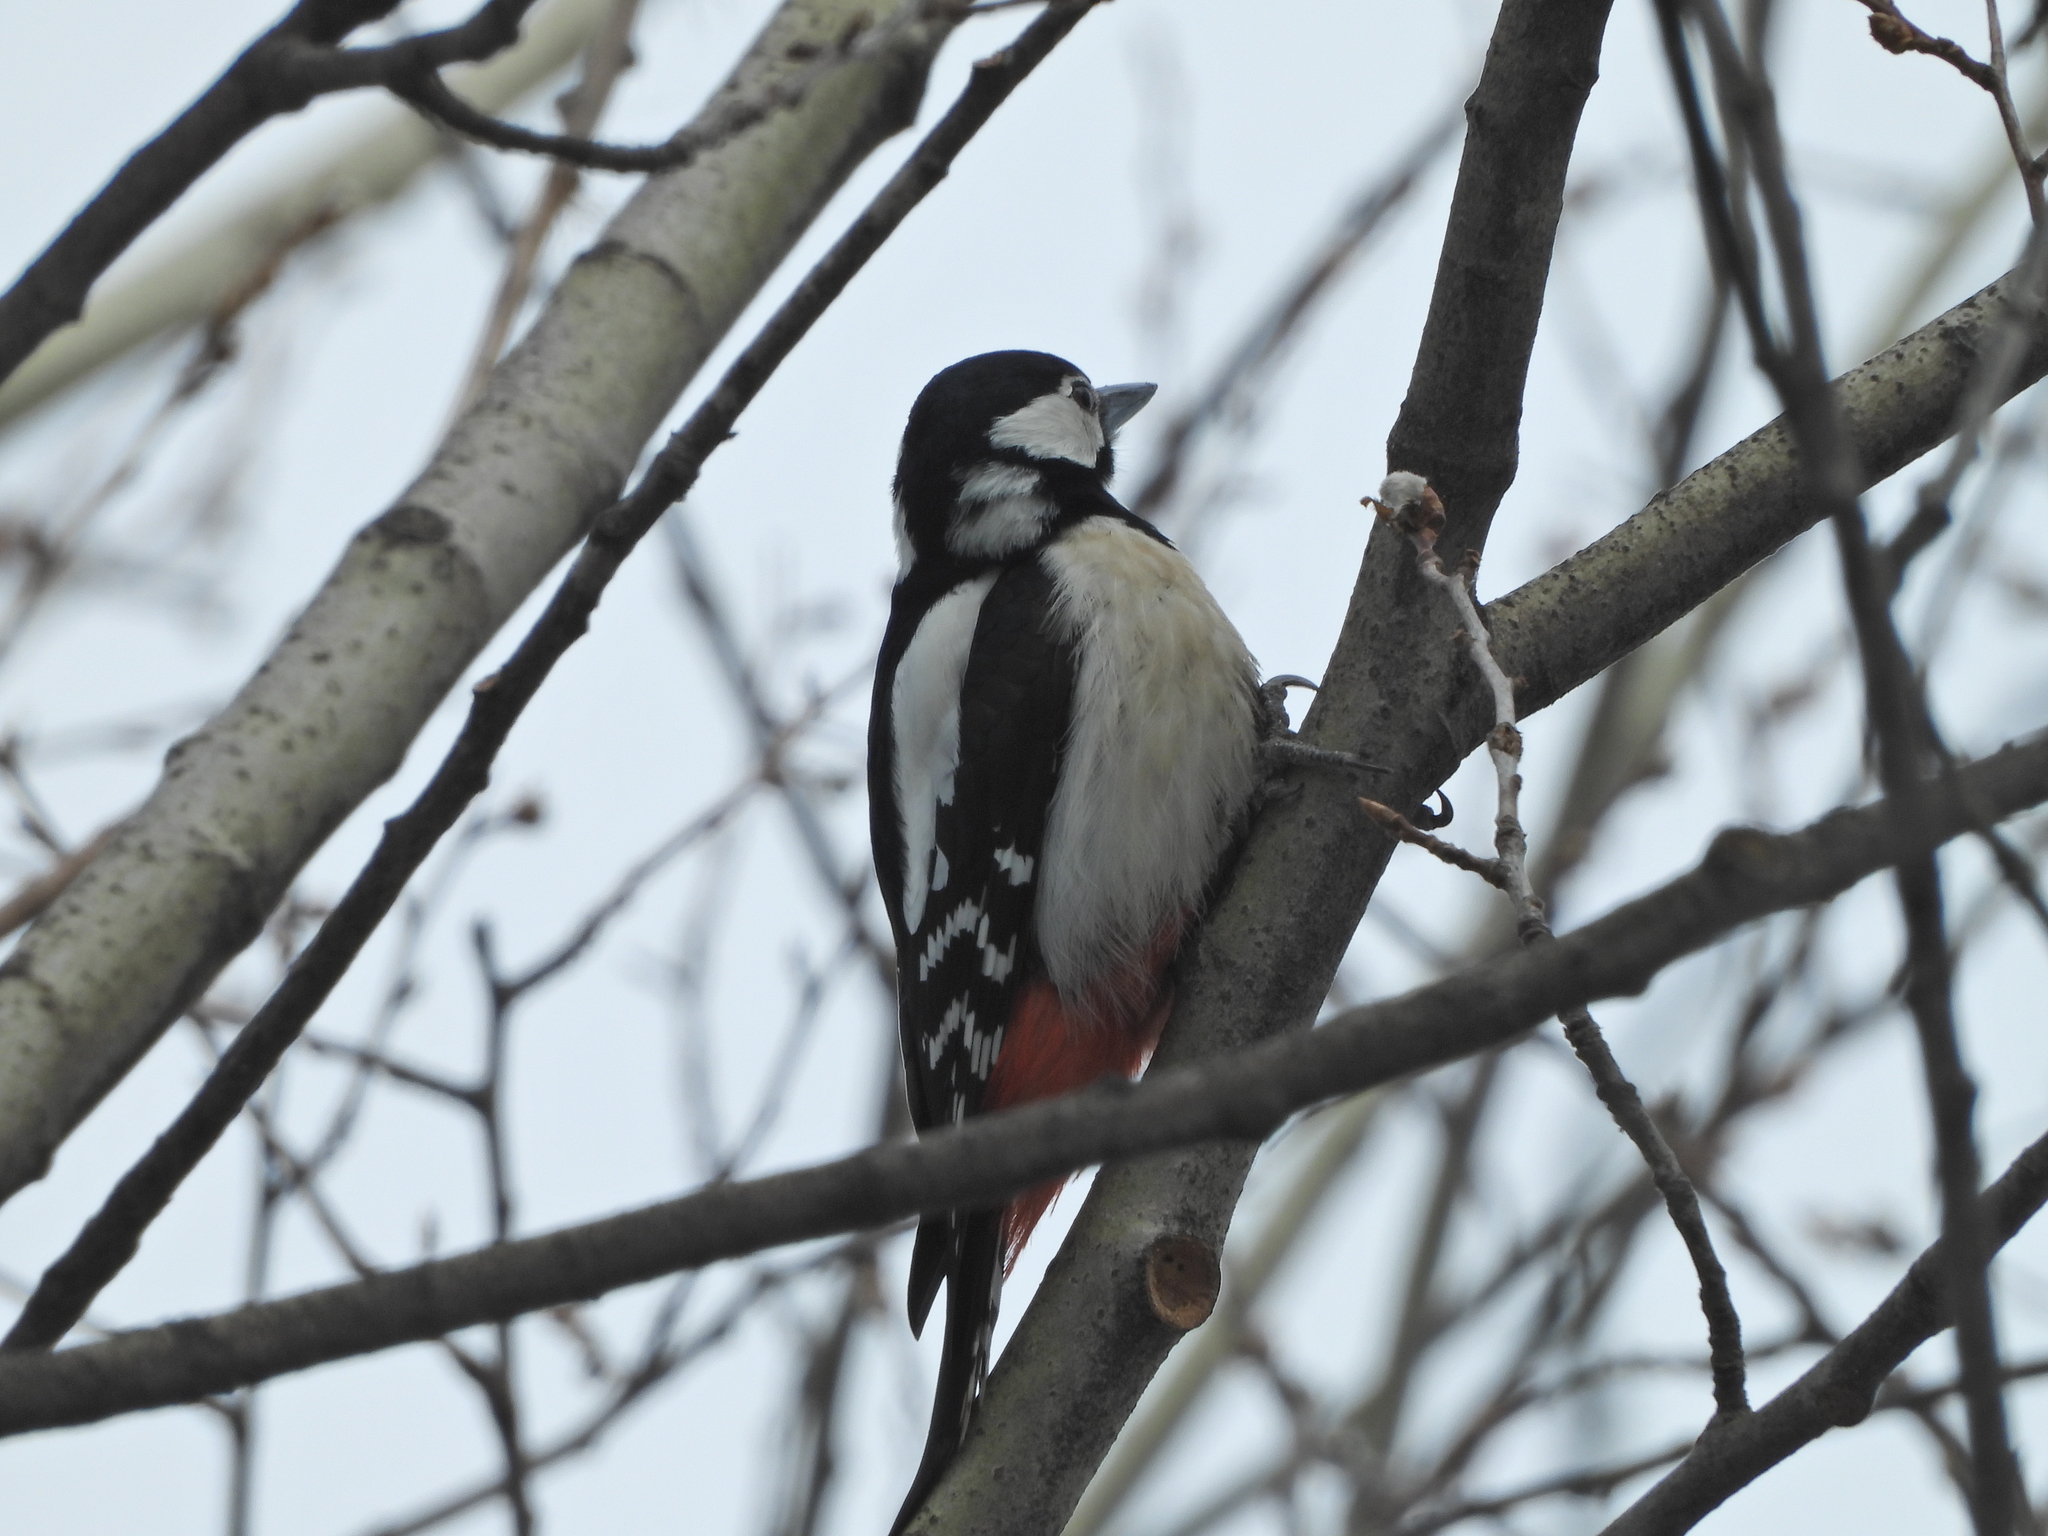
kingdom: Animalia
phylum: Chordata
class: Aves
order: Piciformes
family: Picidae
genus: Dendrocopos
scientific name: Dendrocopos major
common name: Great spotted woodpecker
